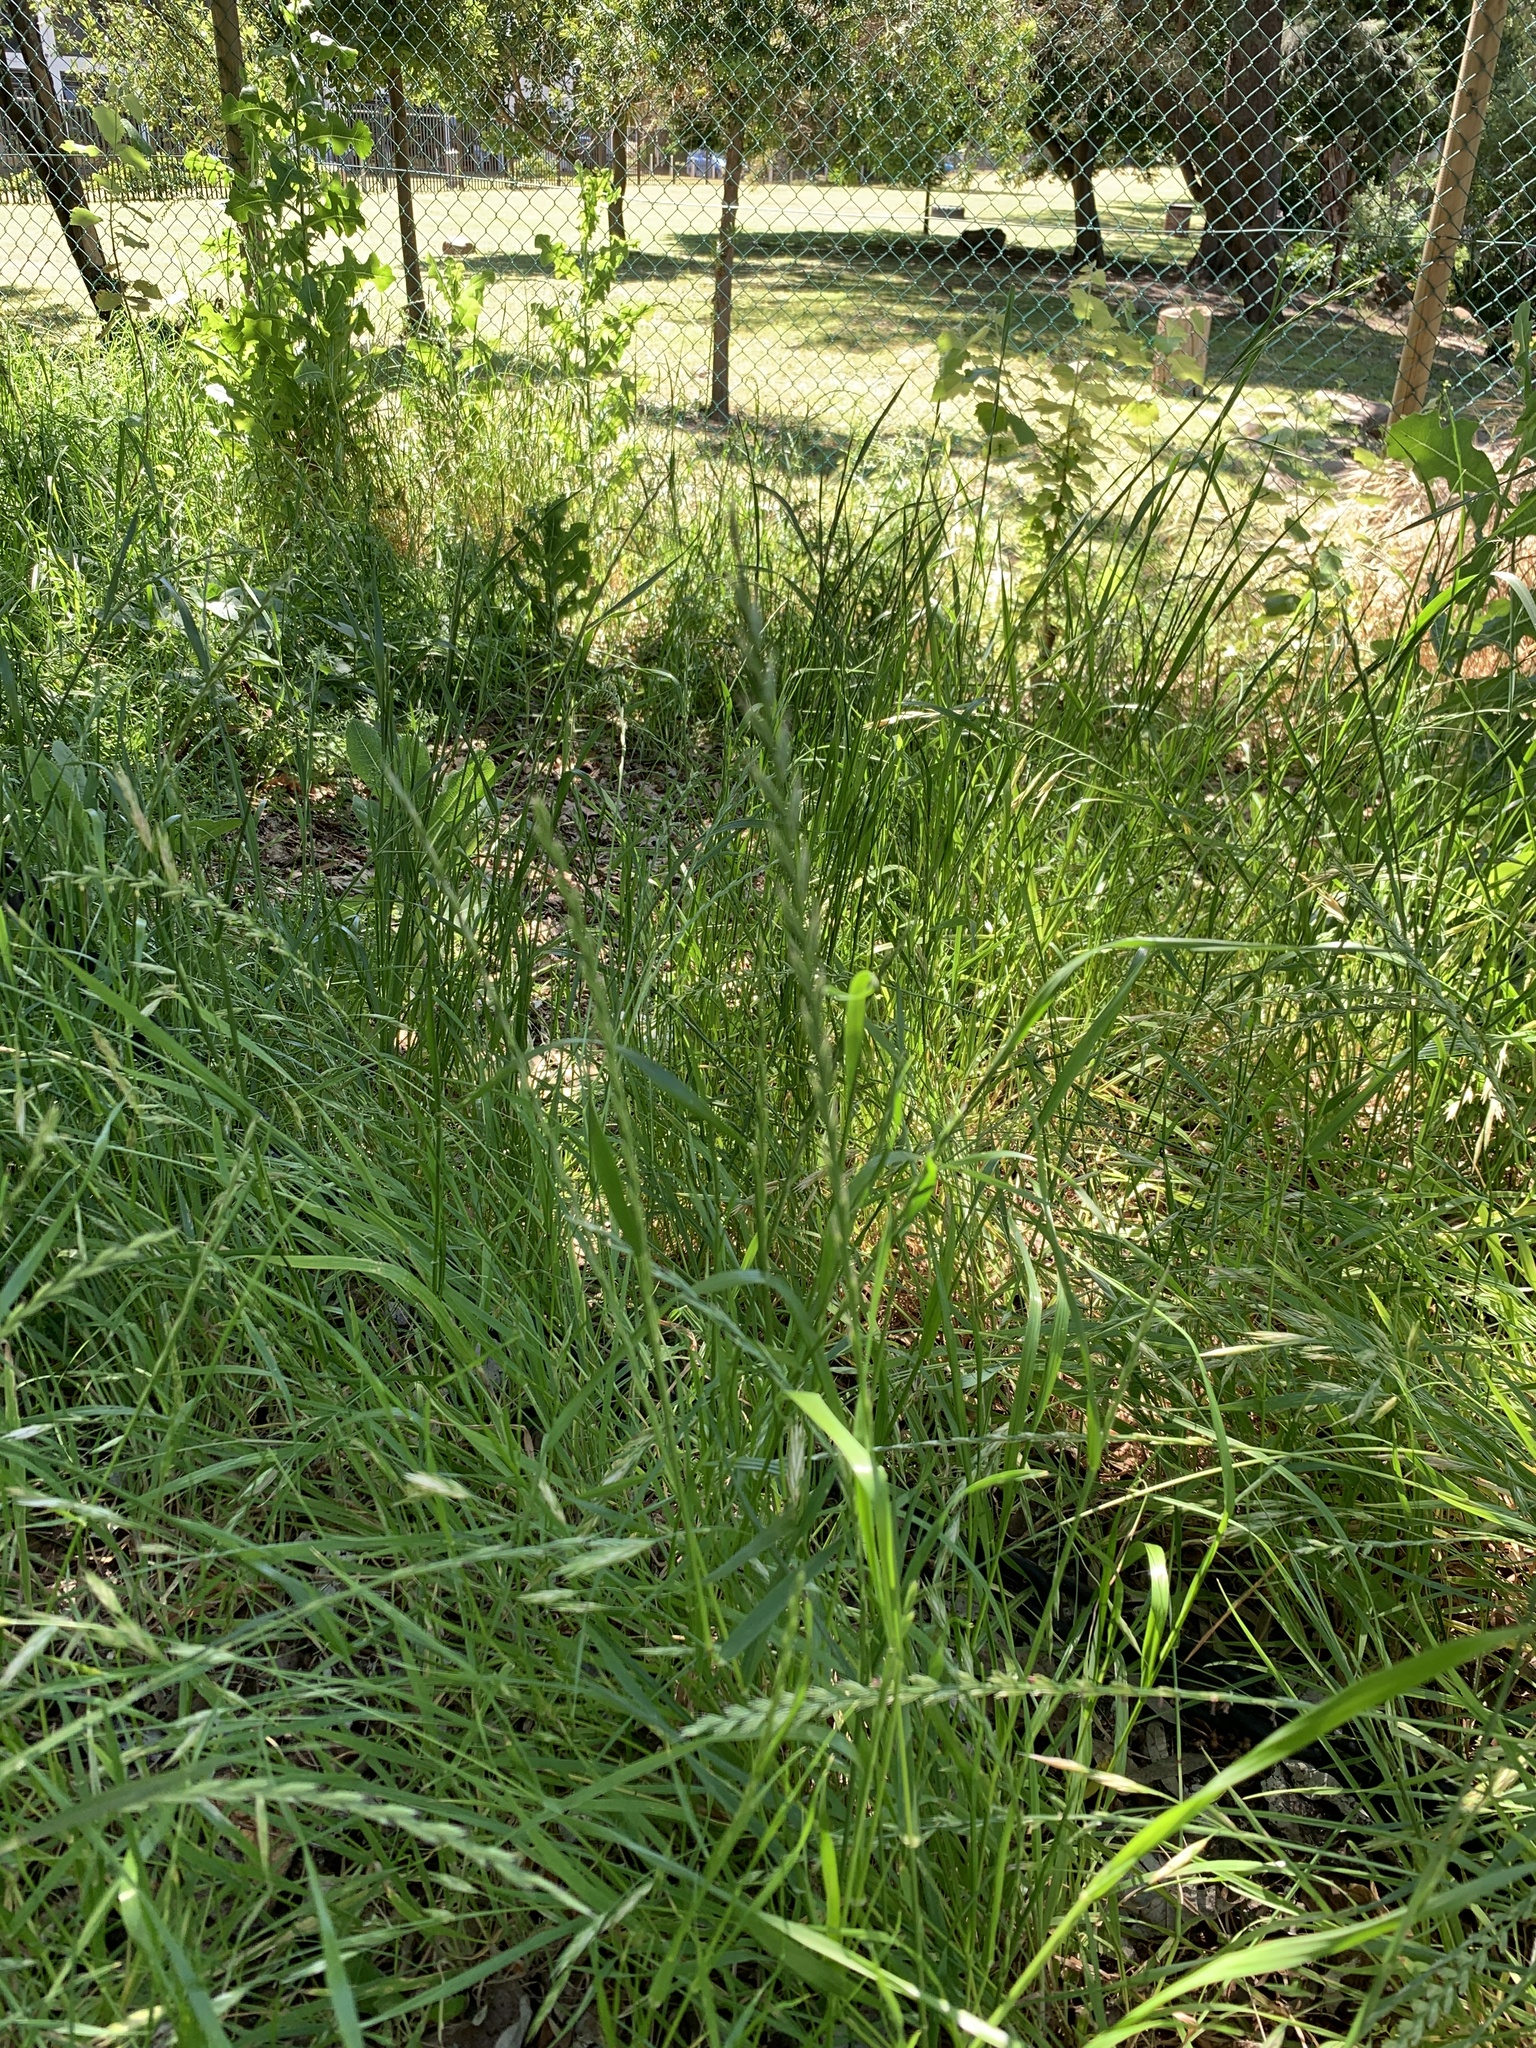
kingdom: Plantae
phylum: Tracheophyta
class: Liliopsida
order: Poales
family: Poaceae
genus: Lolium
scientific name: Lolium
